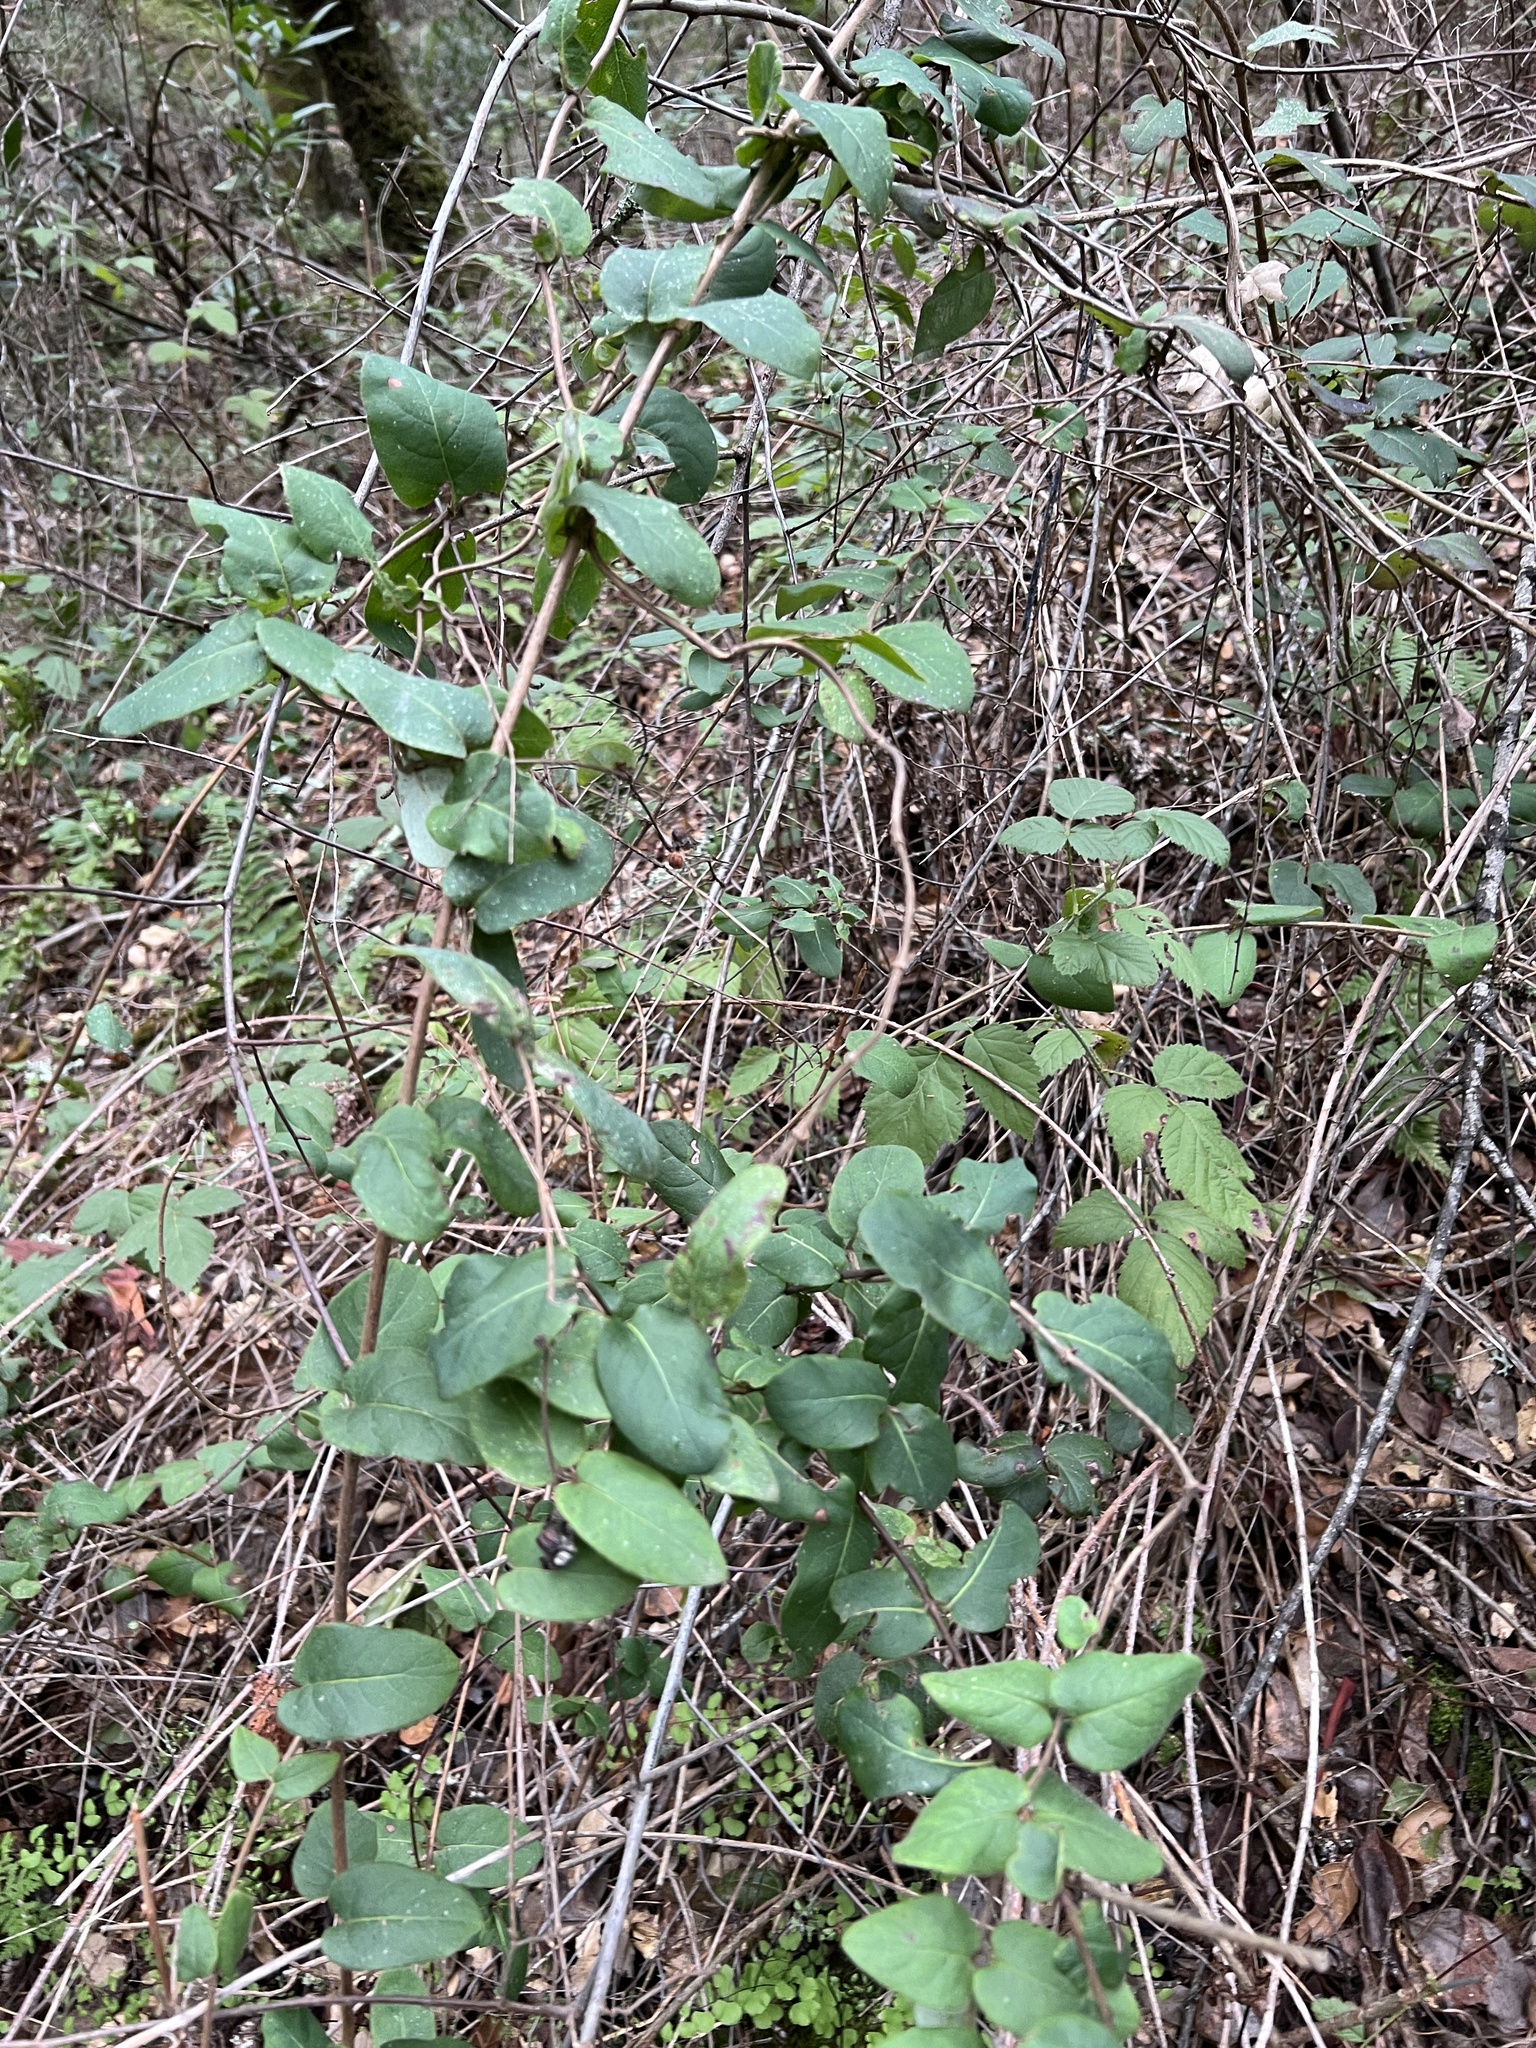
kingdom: Plantae
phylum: Tracheophyta
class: Magnoliopsida
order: Dipsacales
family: Caprifoliaceae
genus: Lonicera
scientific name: Lonicera hispidula
